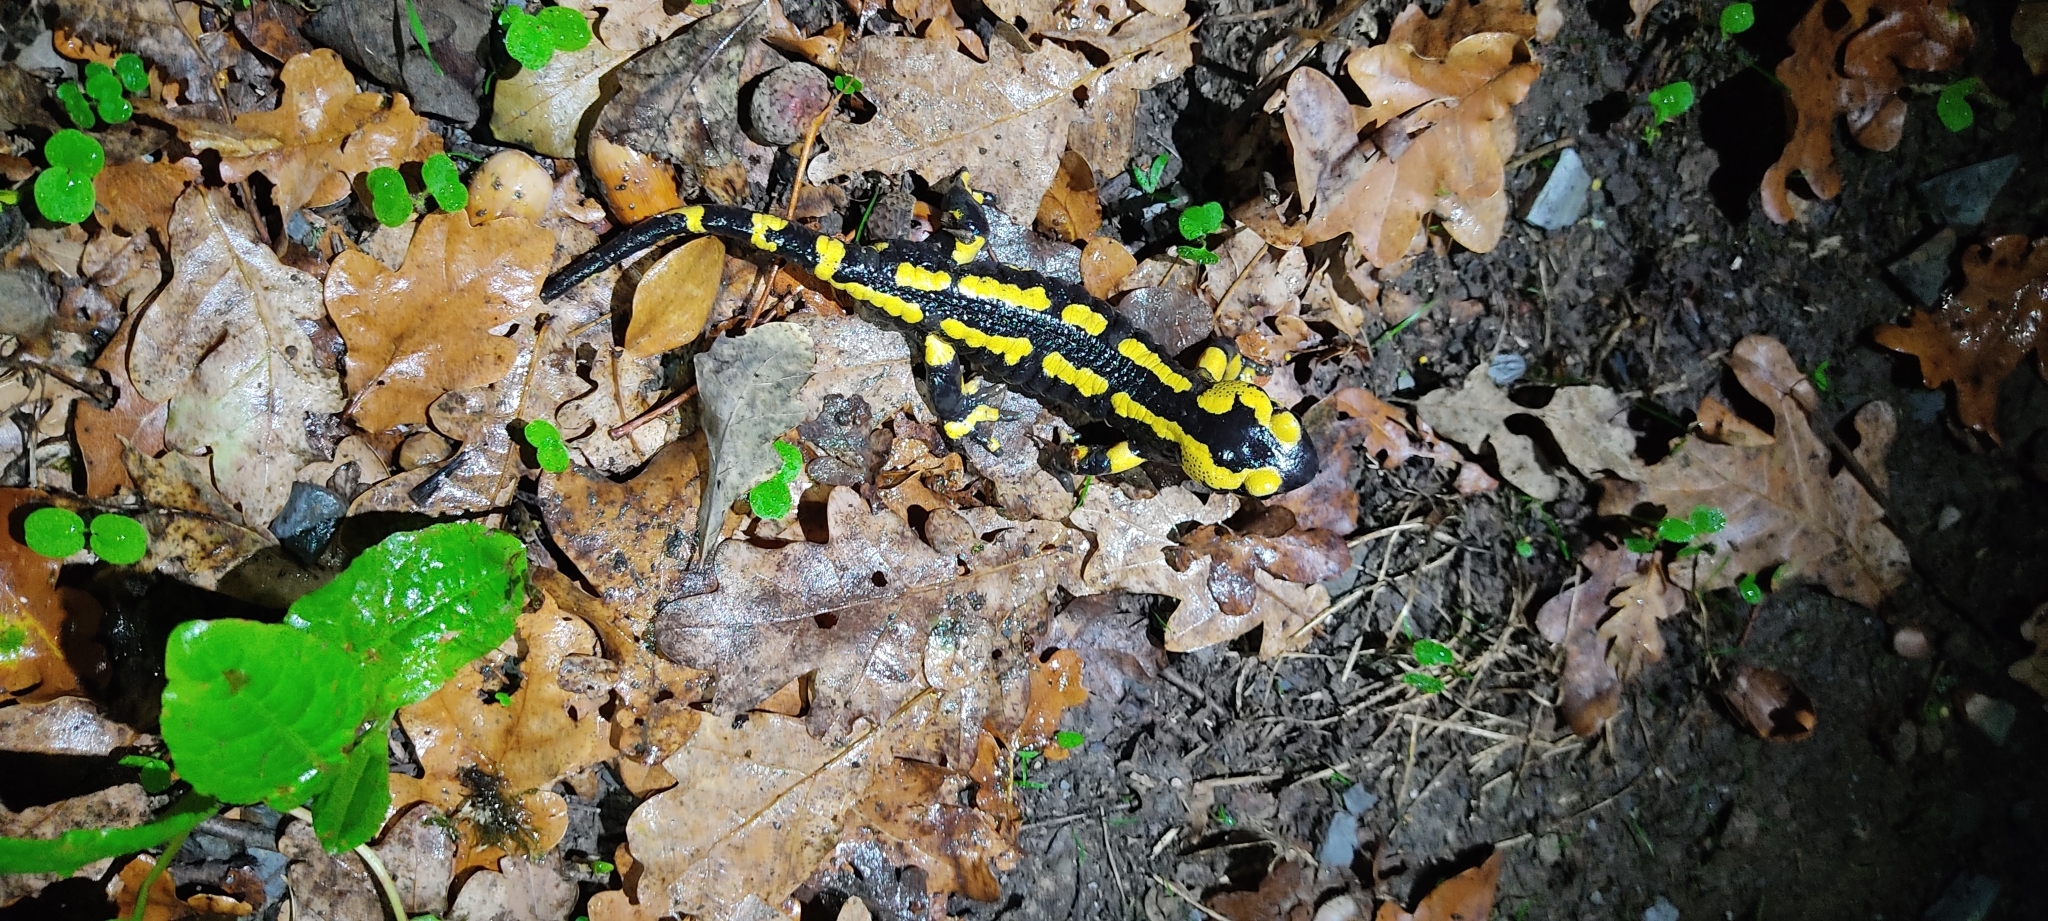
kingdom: Animalia
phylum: Chordata
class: Amphibia
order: Caudata
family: Salamandridae
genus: Salamandra
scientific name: Salamandra salamandra
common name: Fire salamander
